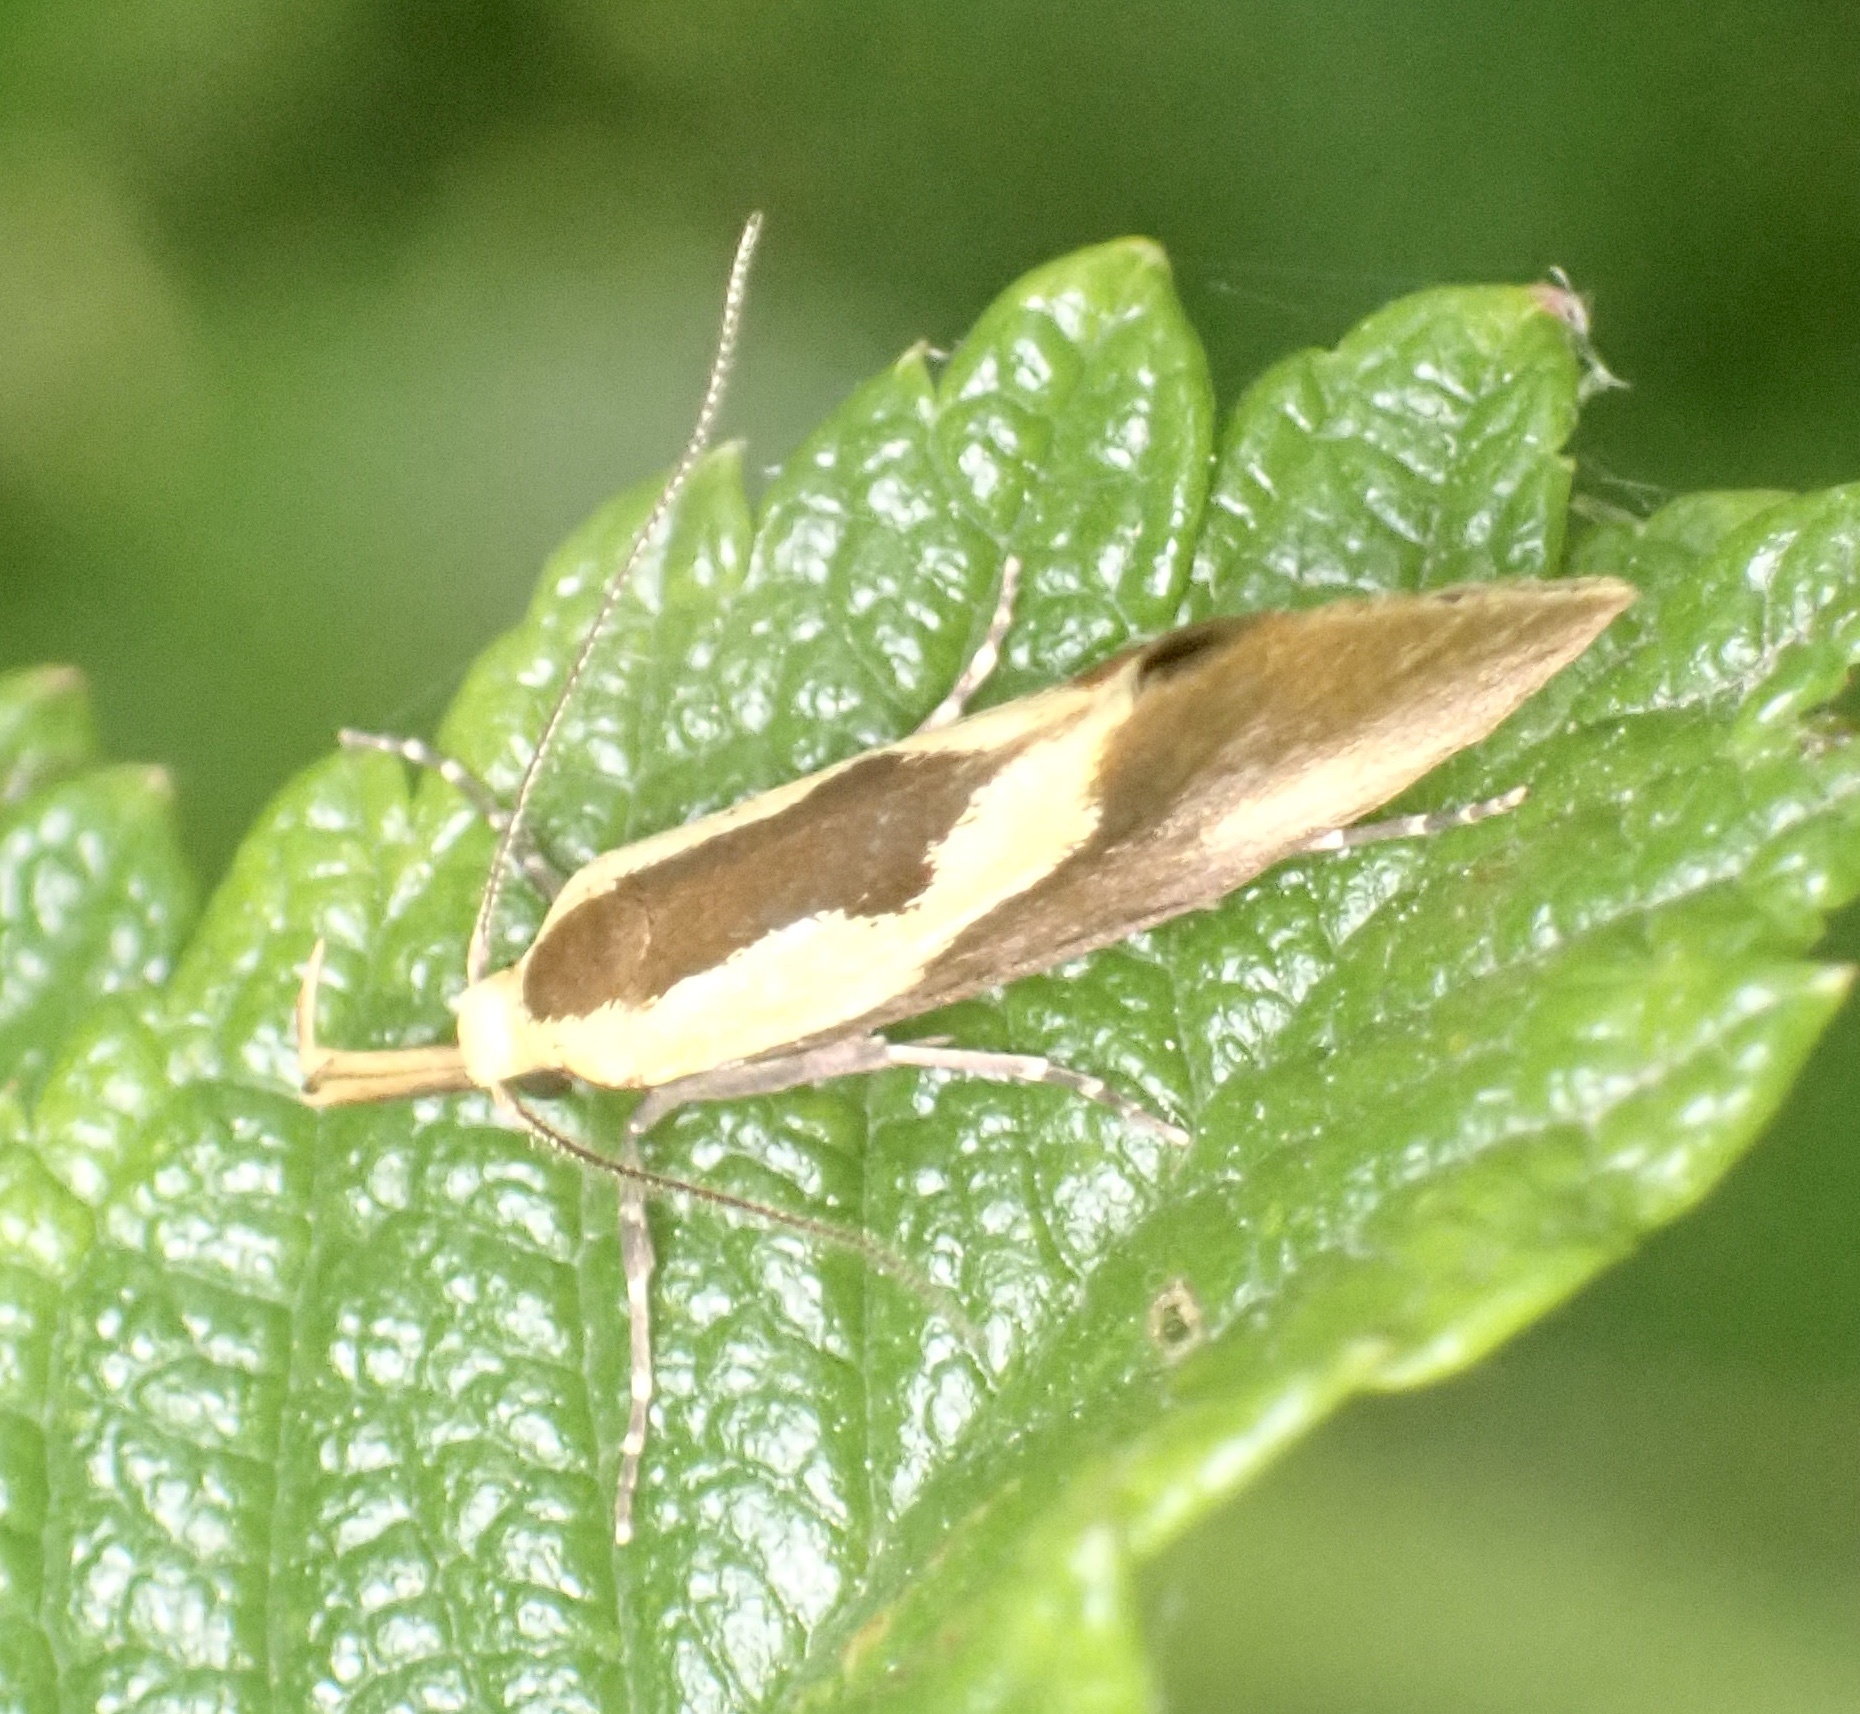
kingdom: Animalia
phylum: Arthropoda
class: Insecta
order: Lepidoptera
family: Oecophoridae
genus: Harpella
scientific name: Harpella forficella
